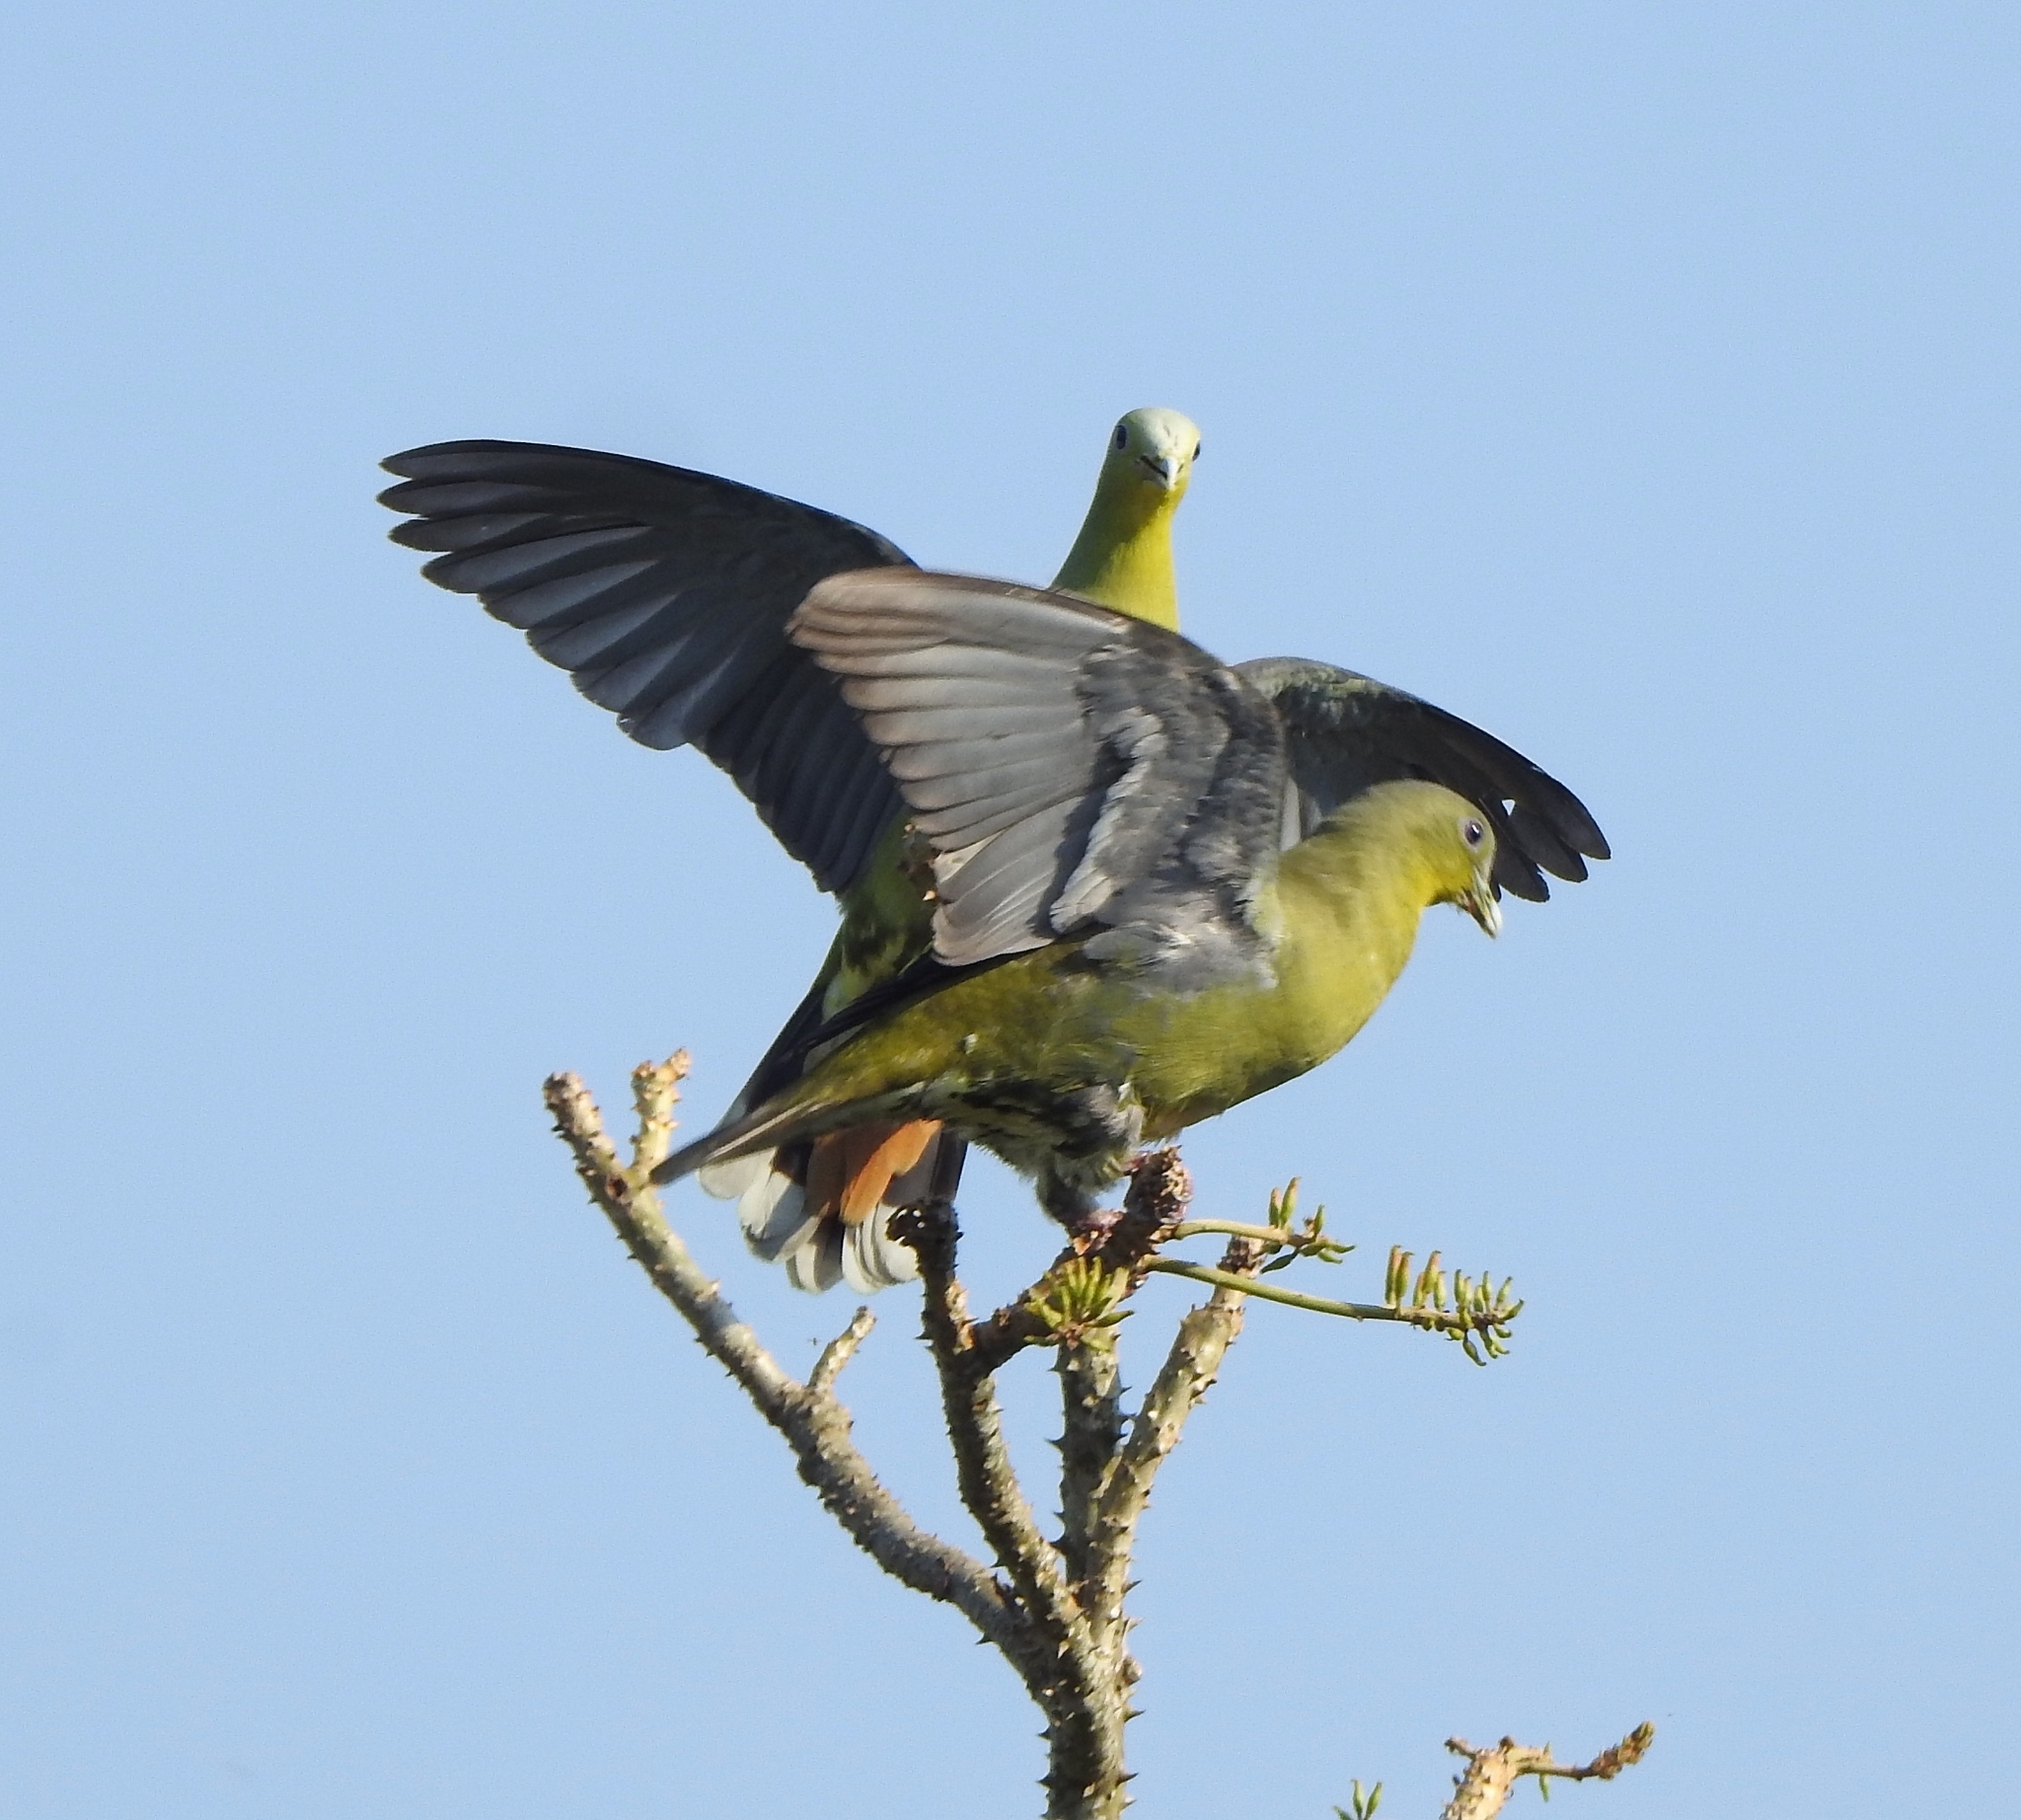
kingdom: Animalia
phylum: Chordata
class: Aves
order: Columbiformes
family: Columbidae
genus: Treron
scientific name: Treron affinis
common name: Grey-fronted green pigeon
